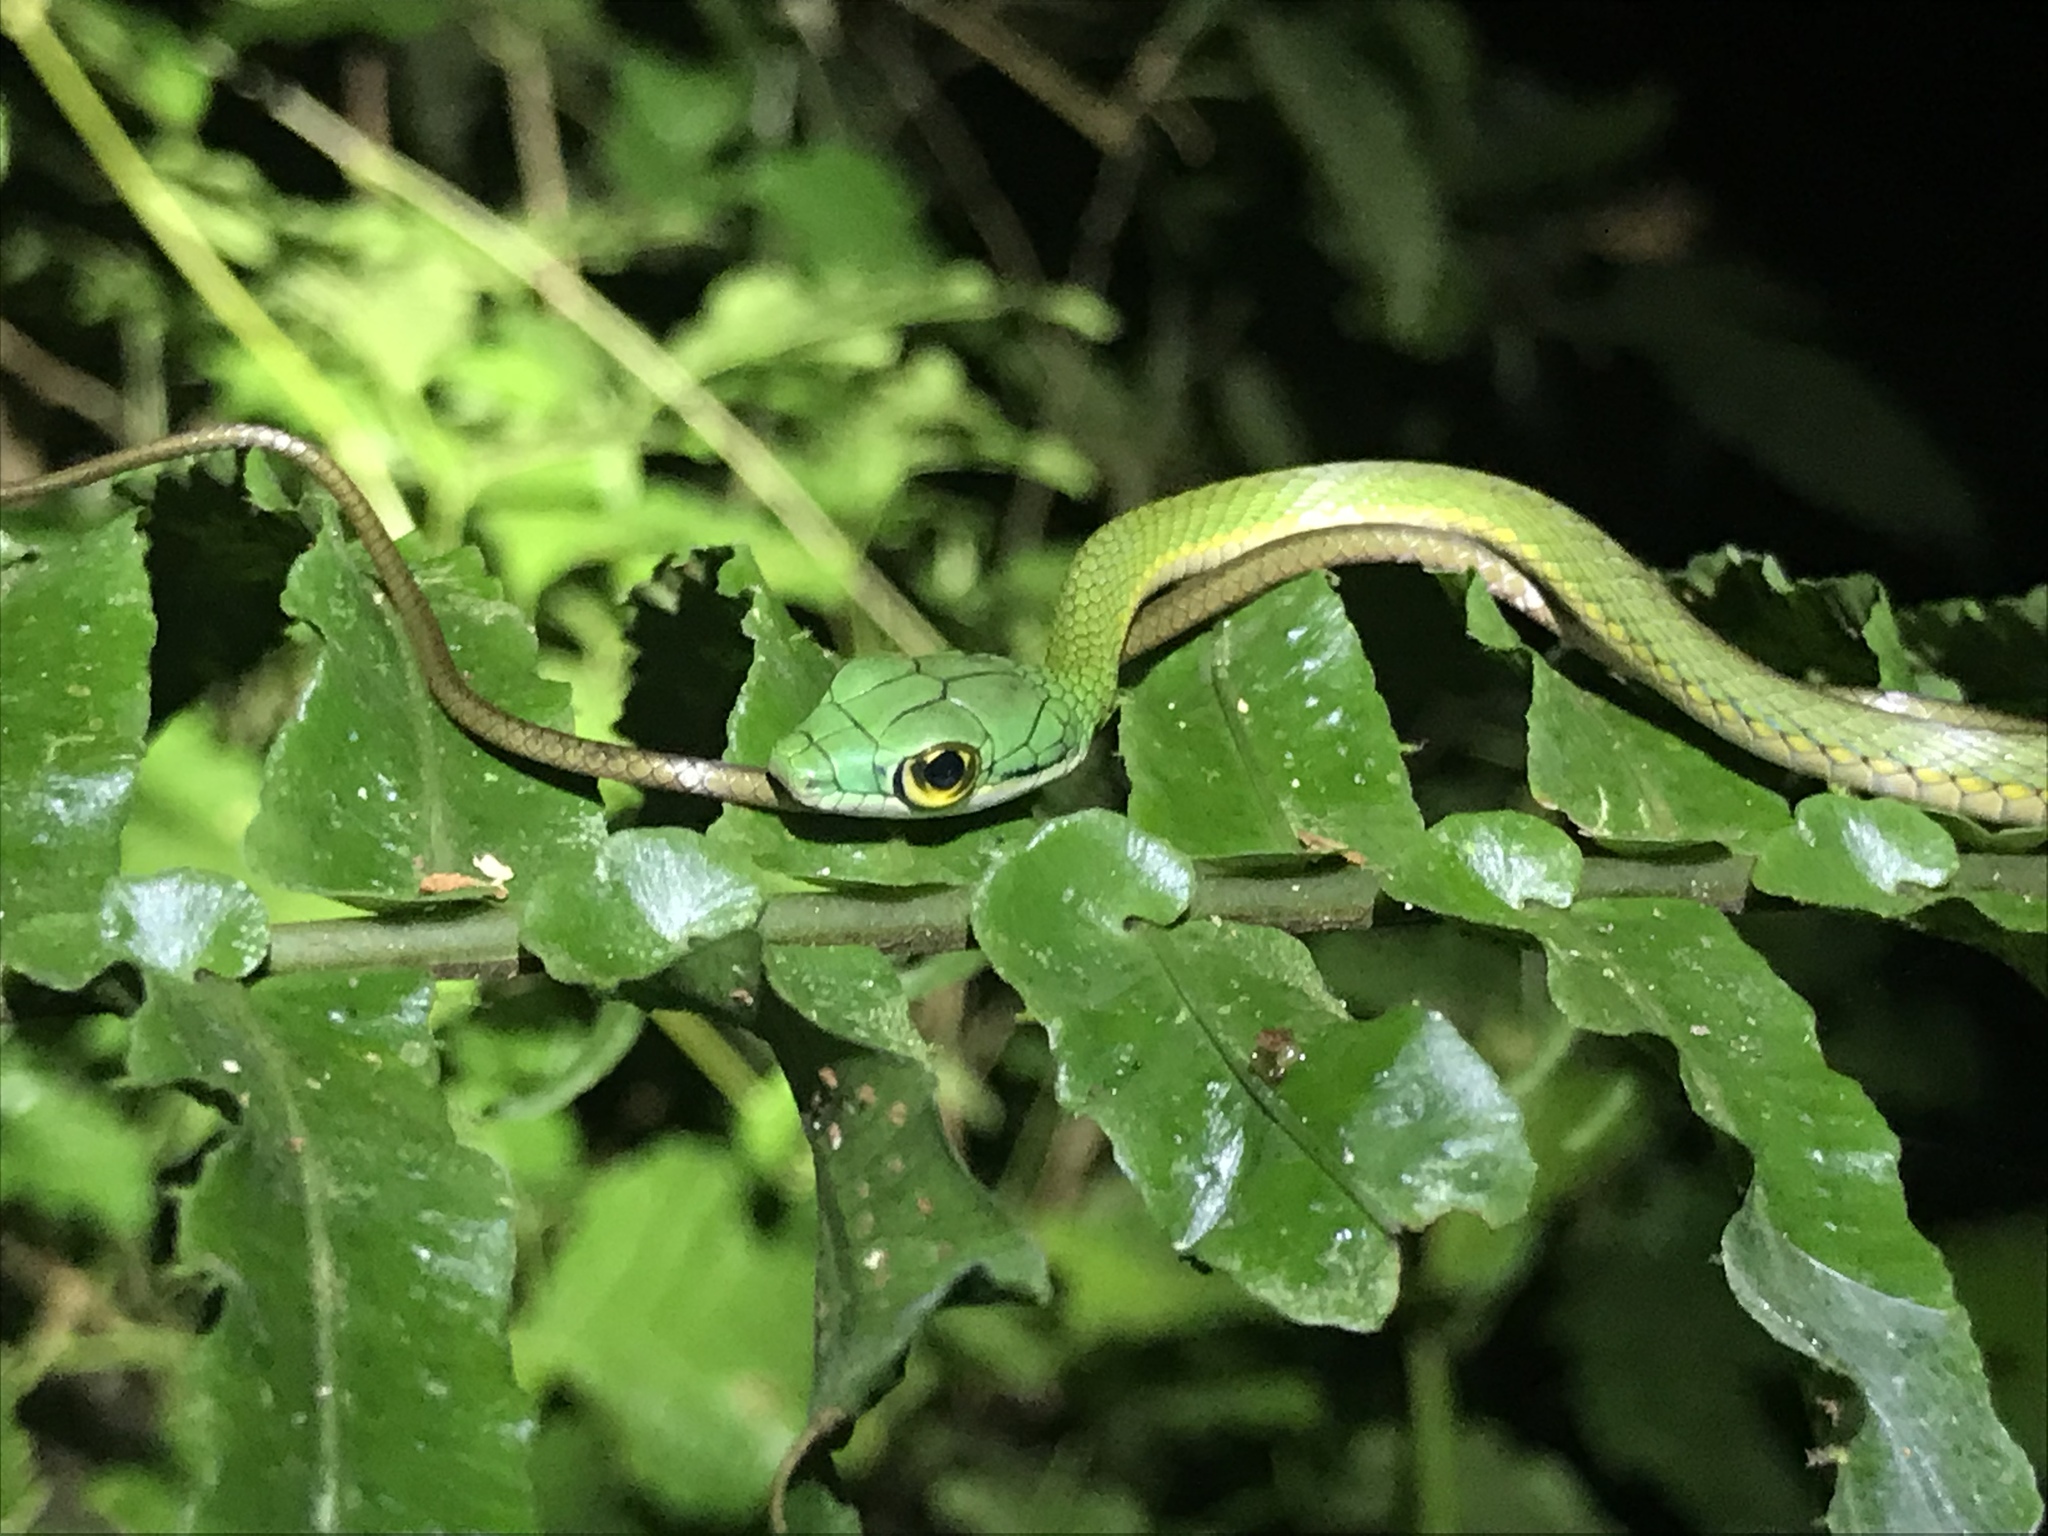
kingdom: Animalia
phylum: Chordata
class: Squamata
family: Colubridae
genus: Leptophis
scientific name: Leptophis ahaetulla
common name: Parrot snake
